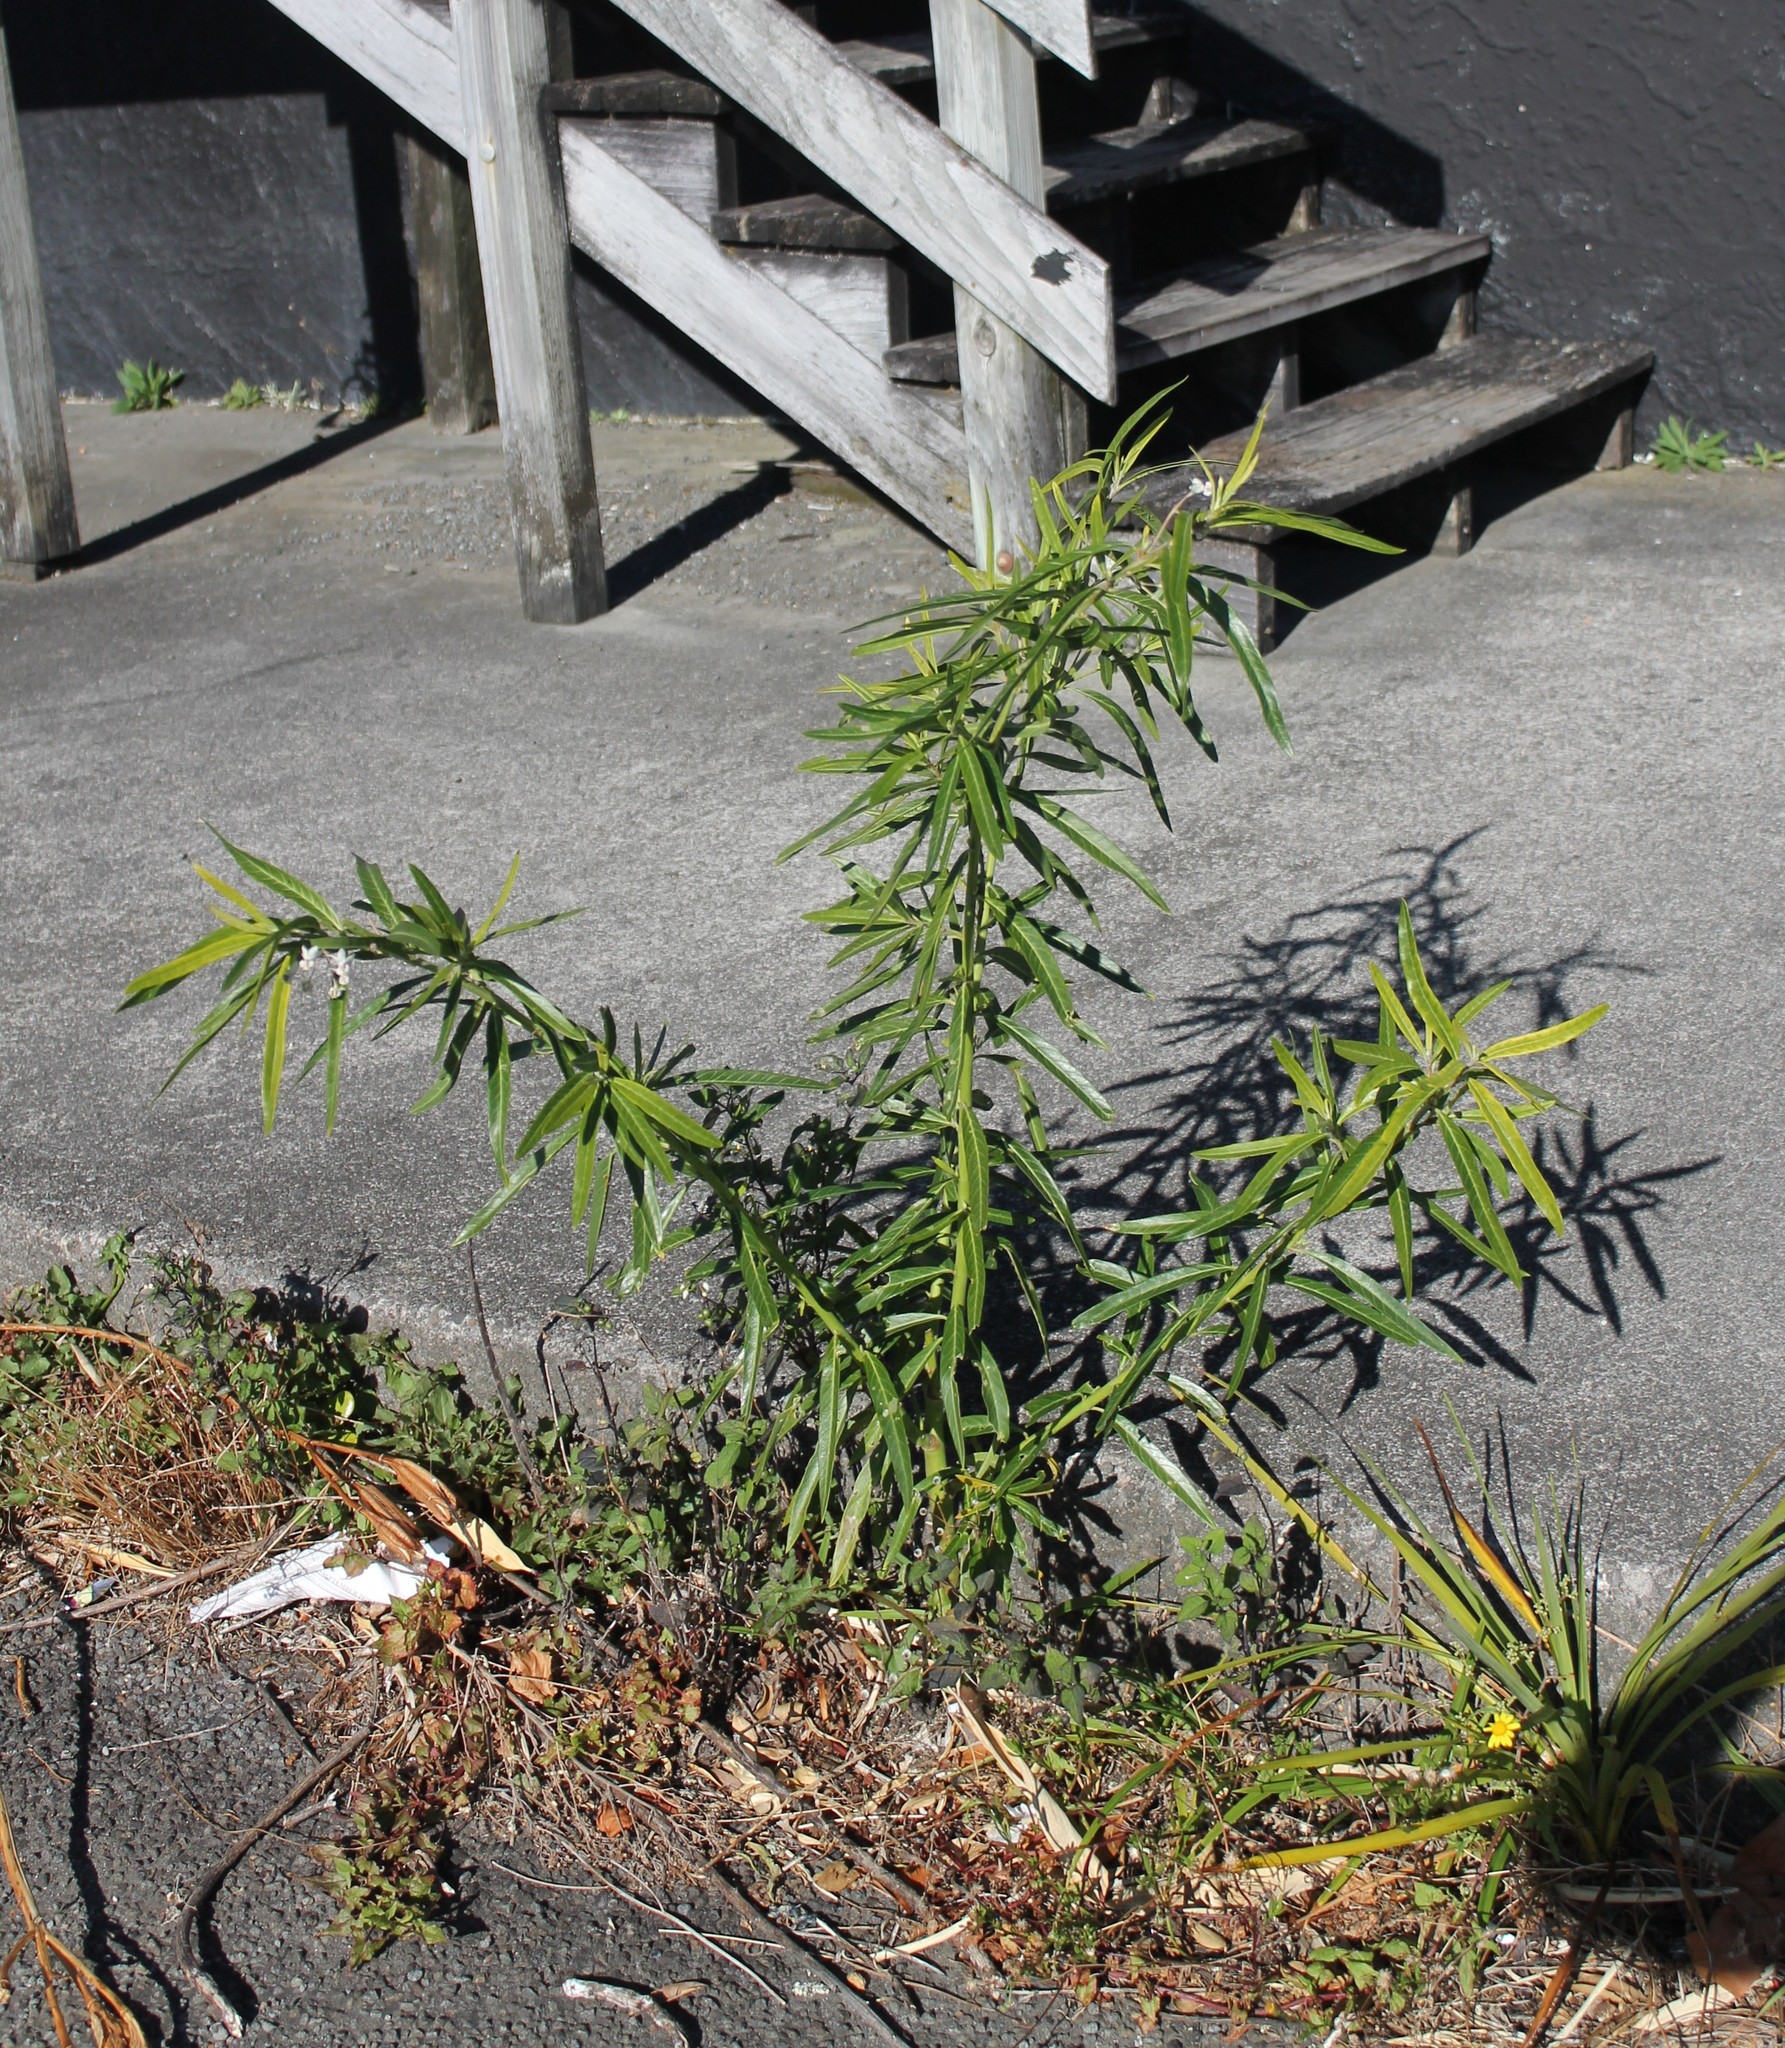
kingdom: Plantae
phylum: Tracheophyta
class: Magnoliopsida
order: Gentianales
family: Apocynaceae
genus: Gomphocarpus
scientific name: Gomphocarpus physocarpus
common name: Balloon cotton bush
